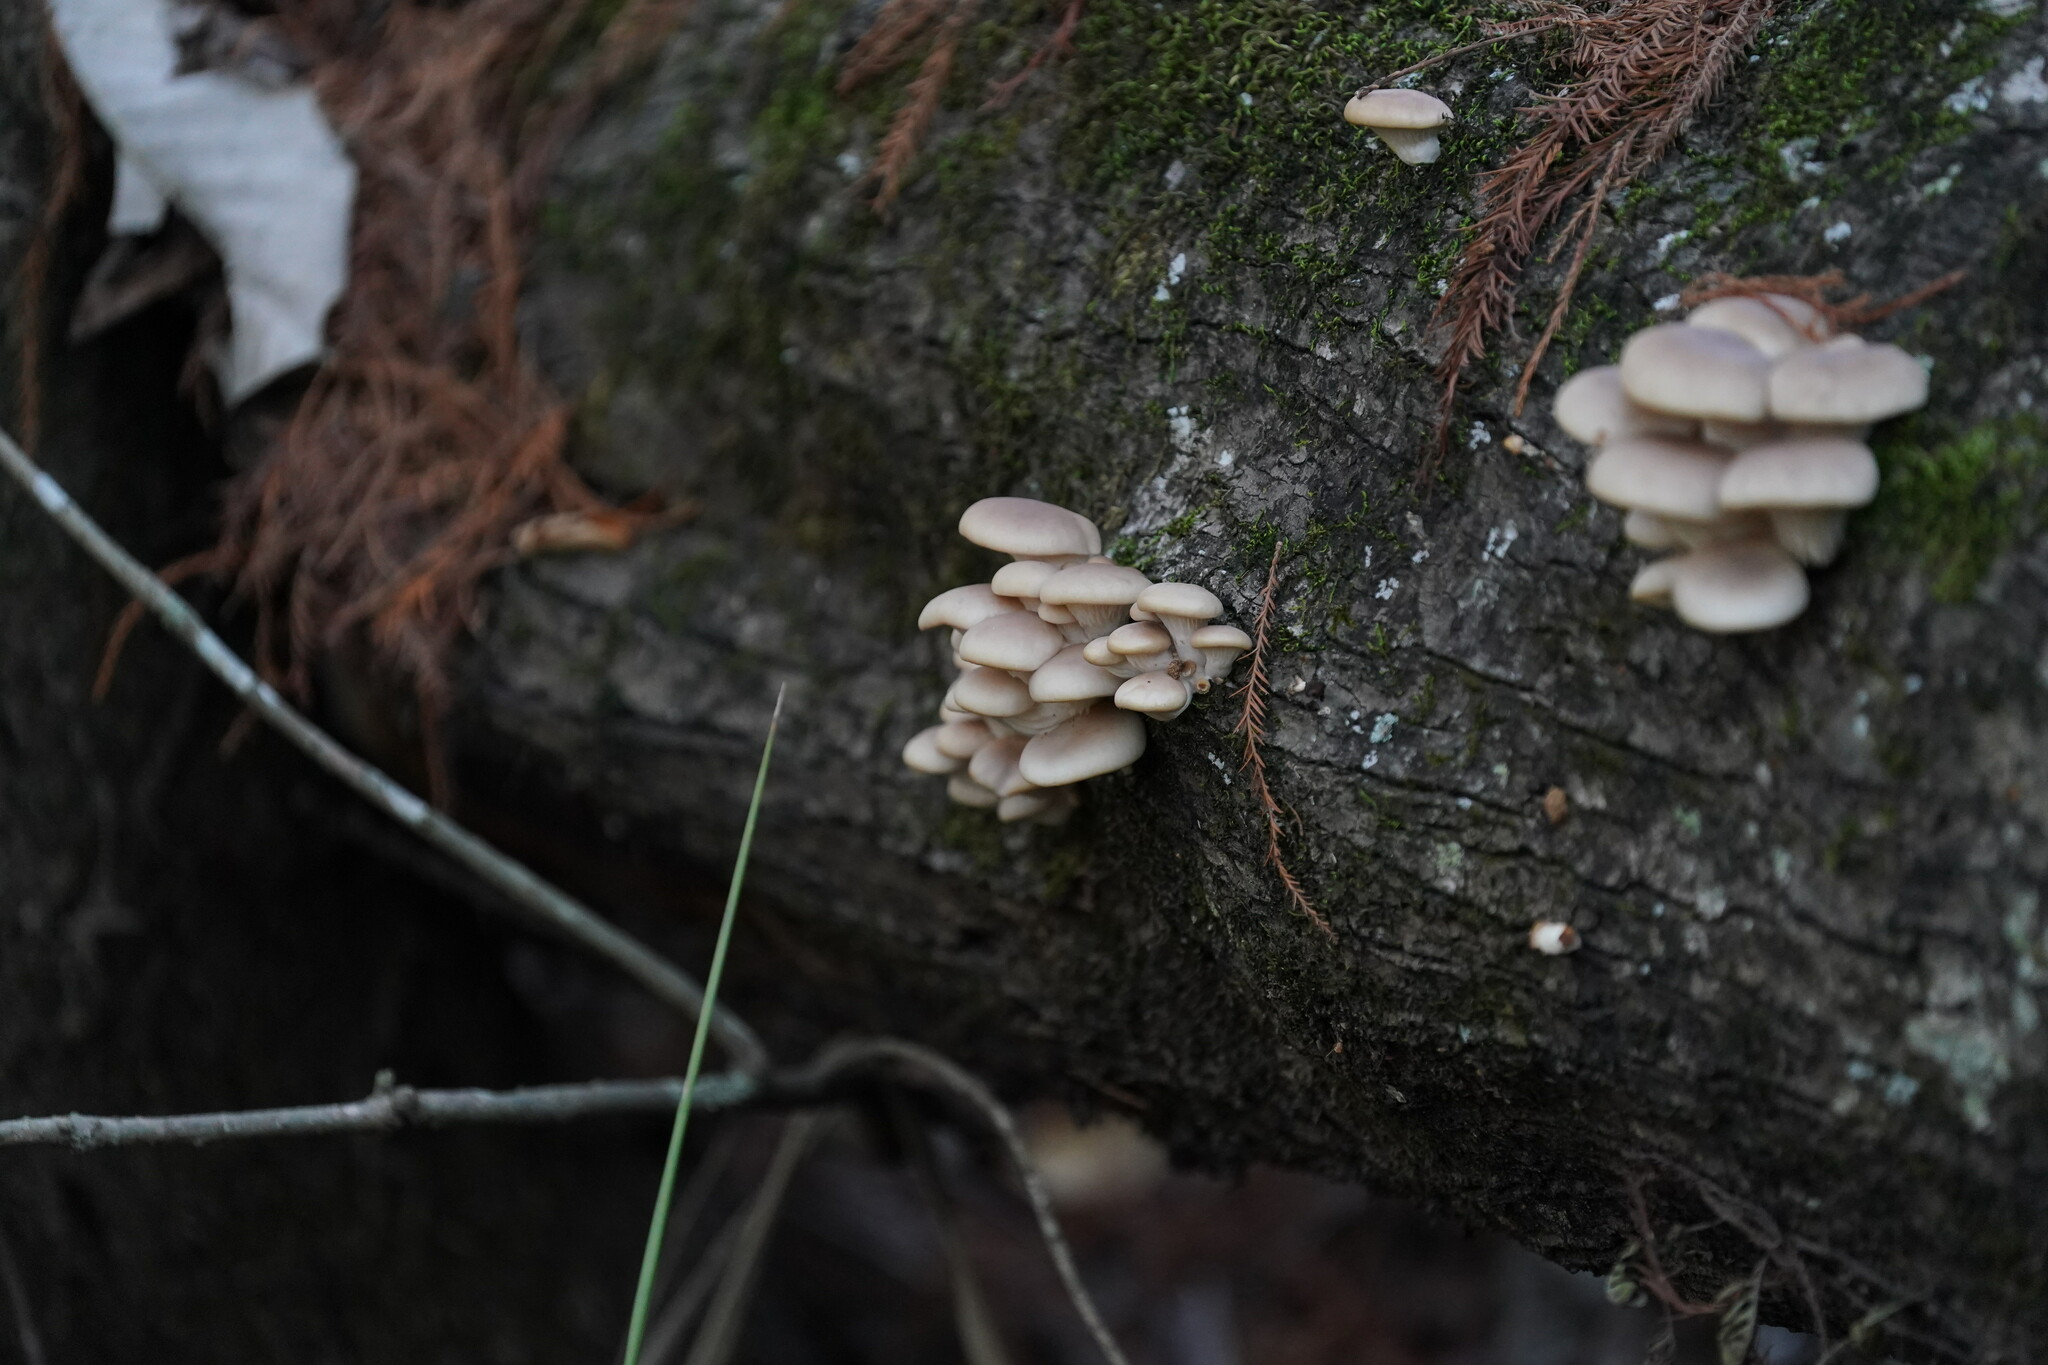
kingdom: Fungi
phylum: Basidiomycota
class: Agaricomycetes
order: Agaricales
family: Pleurotaceae
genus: Pleurotus
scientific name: Pleurotus ostreatus
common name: Oyster mushroom
